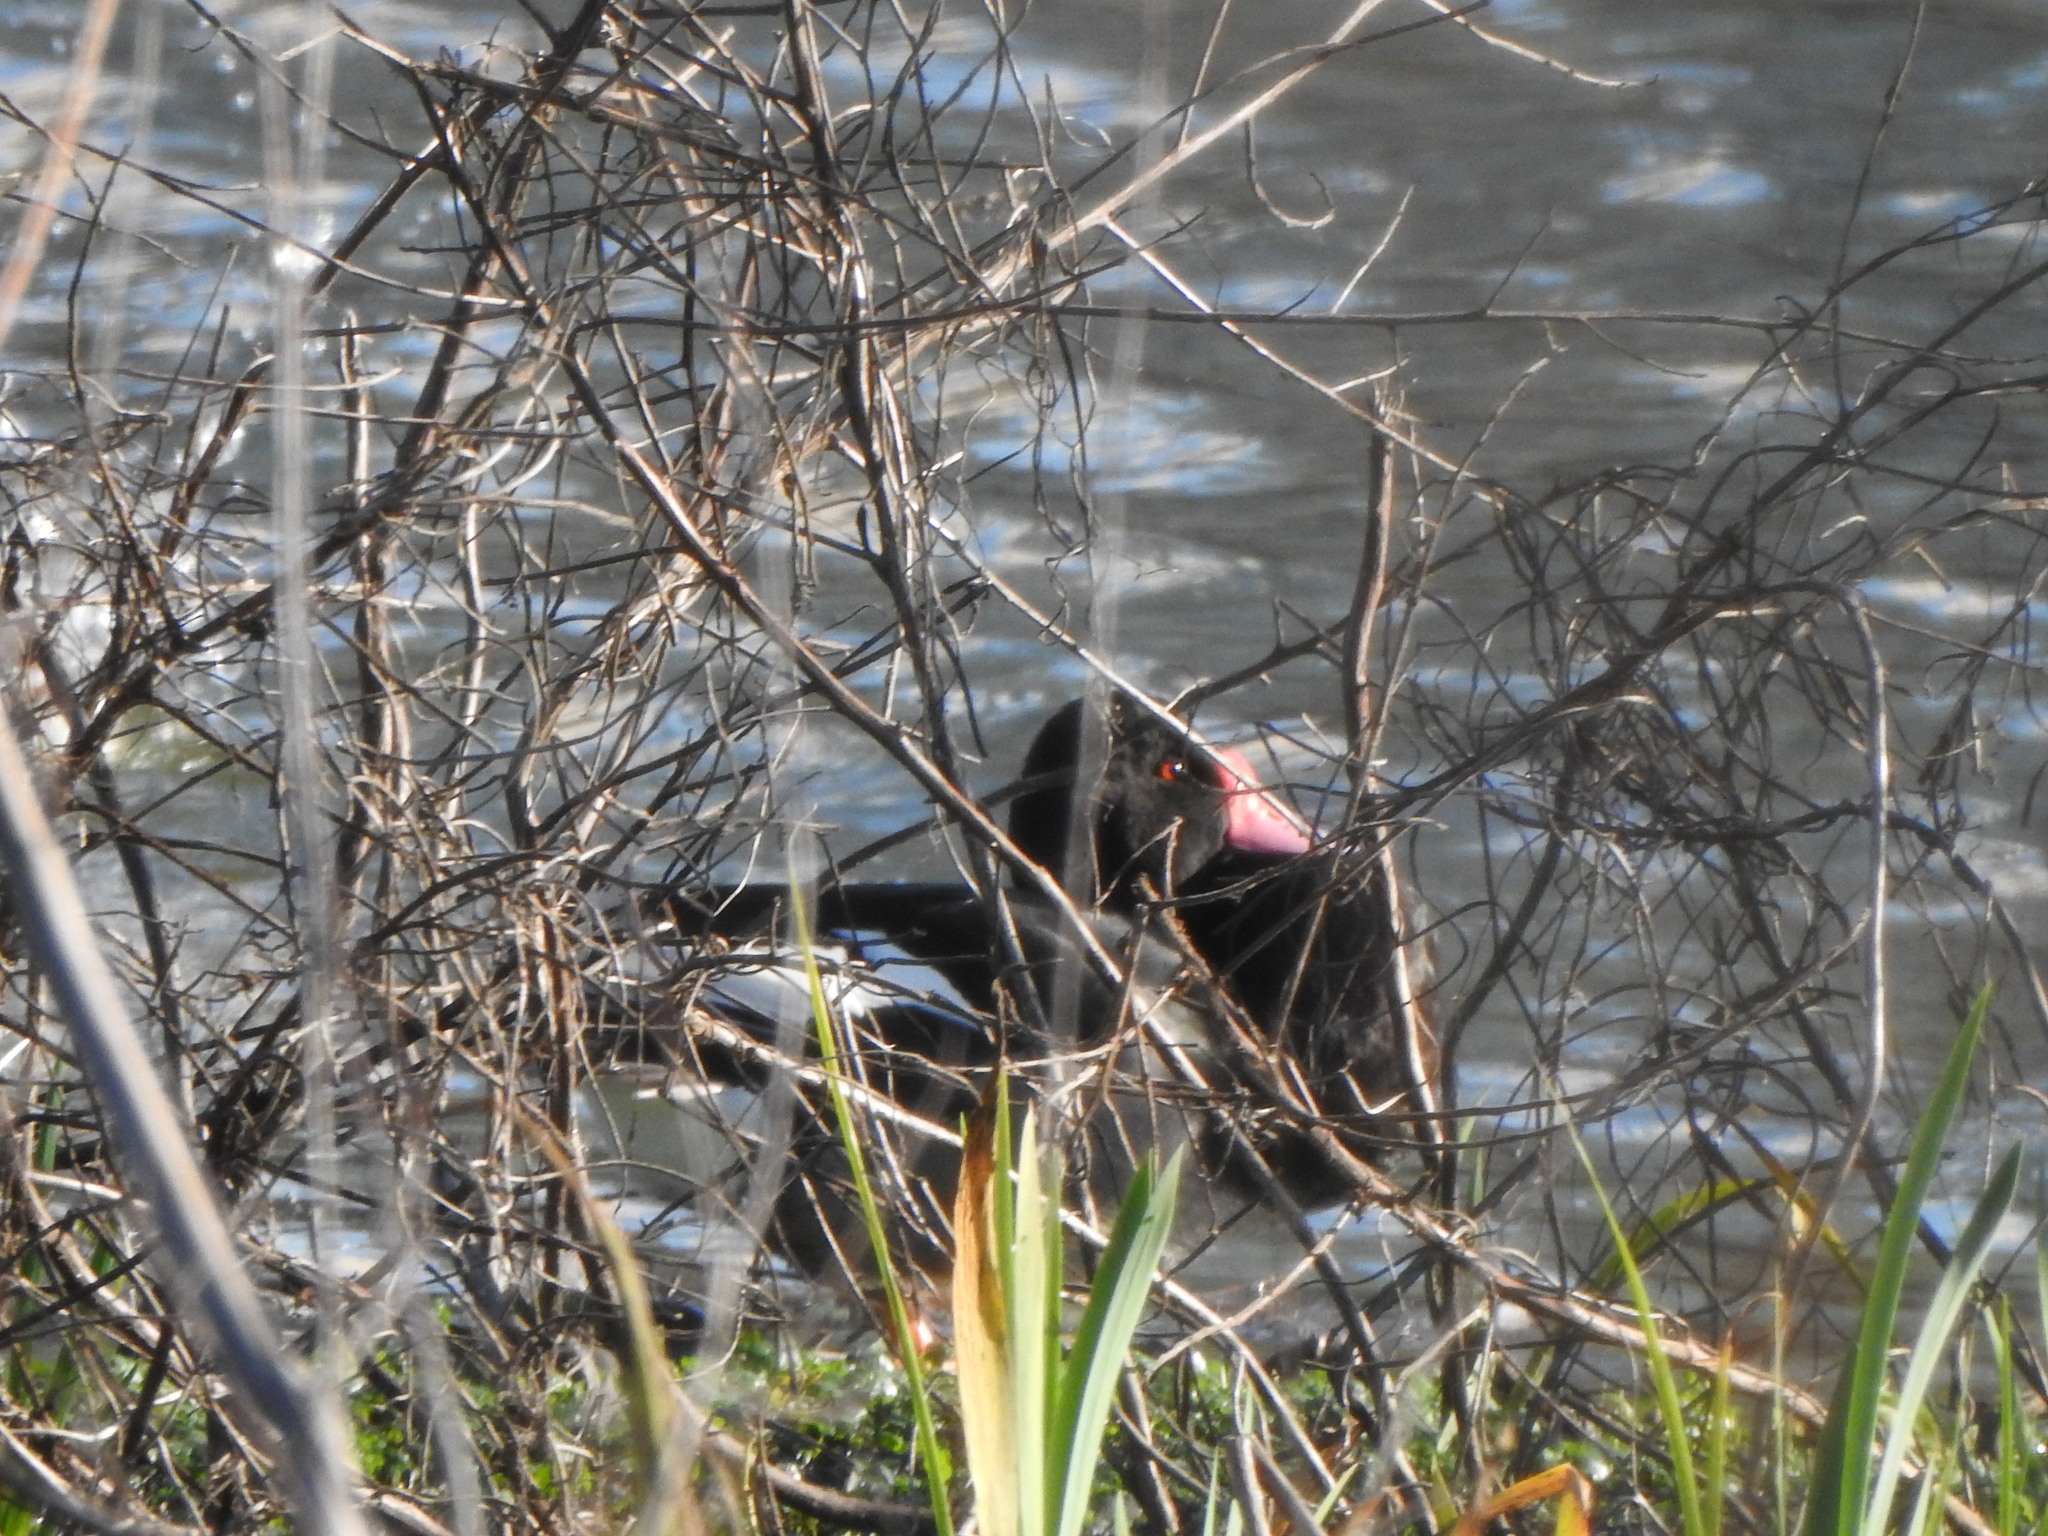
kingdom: Animalia
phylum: Chordata
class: Aves
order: Anseriformes
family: Anatidae
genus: Netta
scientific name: Netta peposaca
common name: Rosy-billed pochard
